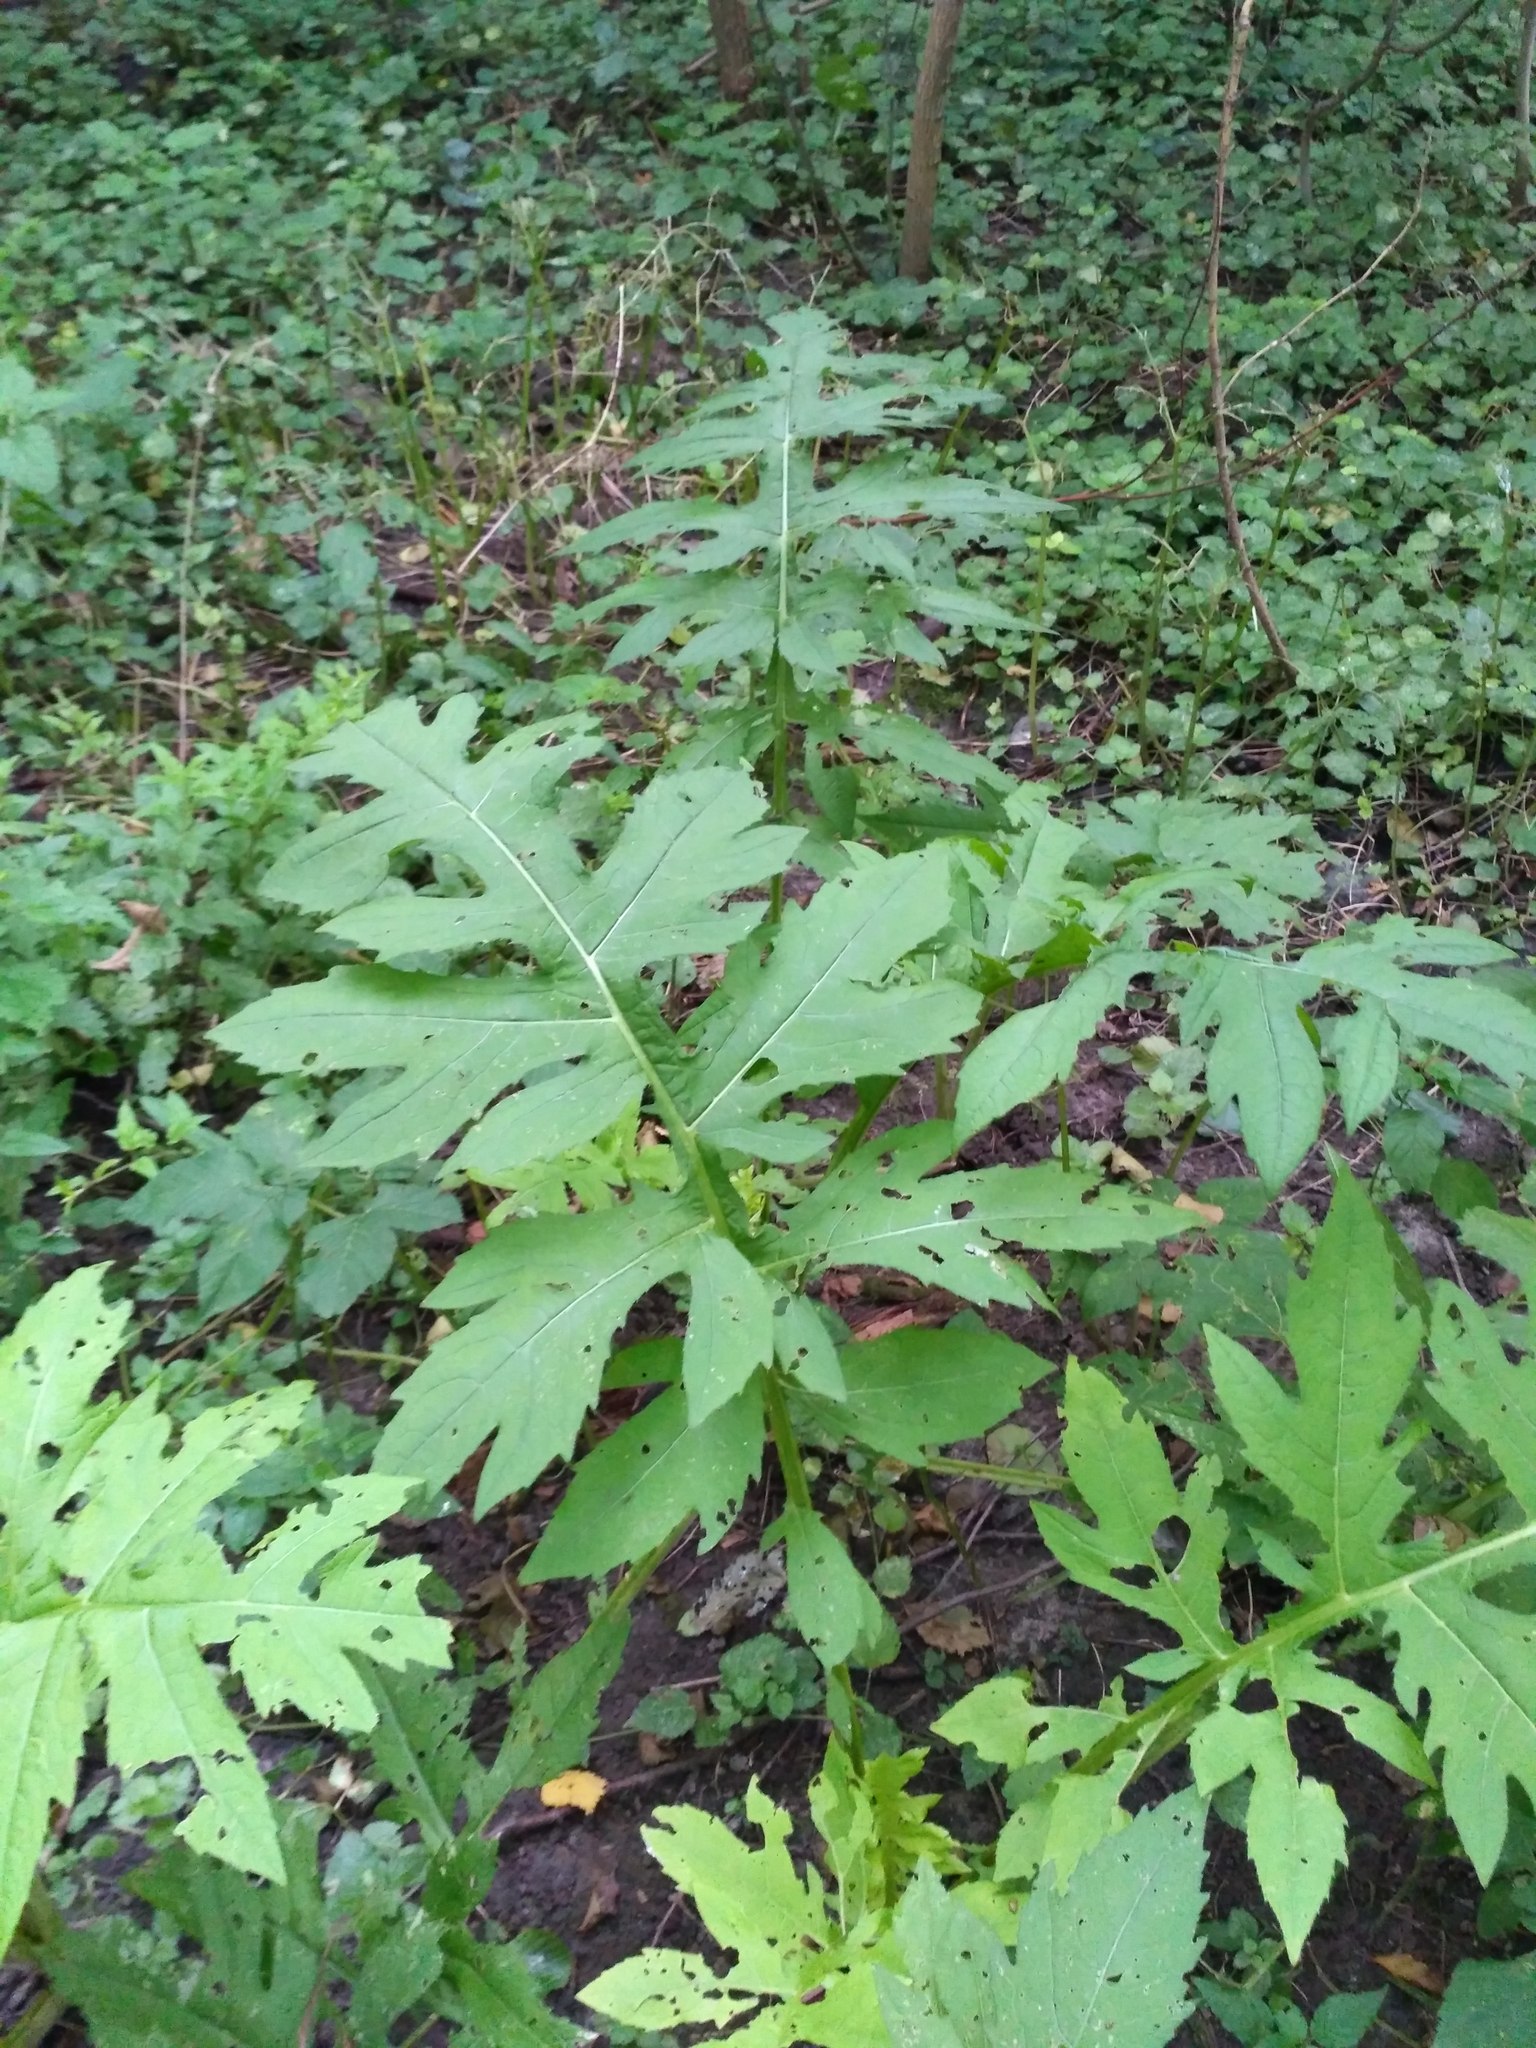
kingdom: Plantae
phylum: Tracheophyta
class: Magnoliopsida
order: Asterales
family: Asteraceae
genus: Cirsium
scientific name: Cirsium oleraceum
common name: Cabbage thistle
